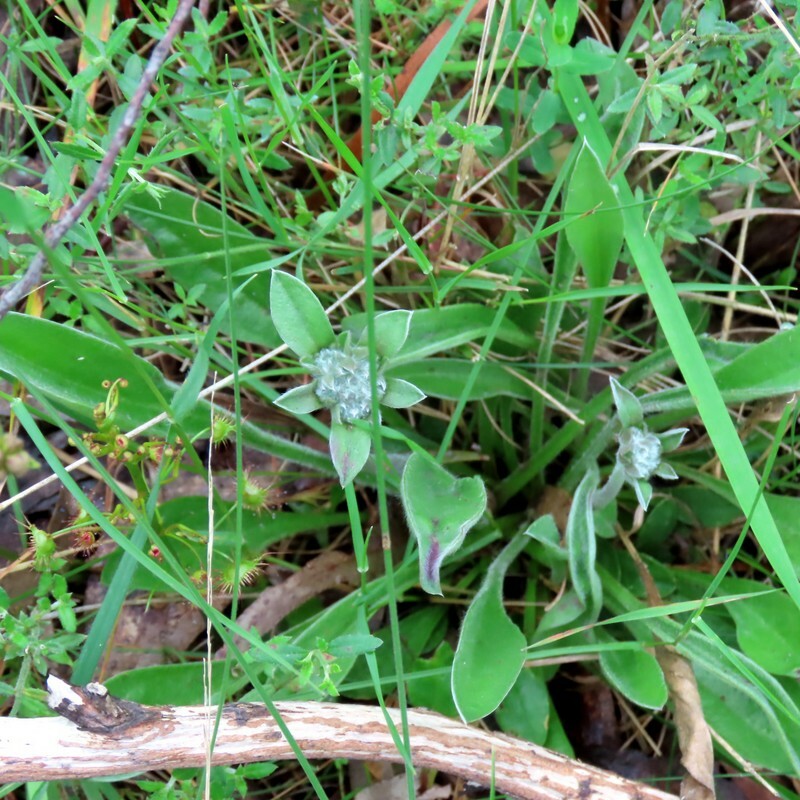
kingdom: Plantae
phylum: Tracheophyta
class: Magnoliopsida
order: Asterales
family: Goodeniaceae
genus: Brunonia
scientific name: Brunonia australis
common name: Blue pincushion
